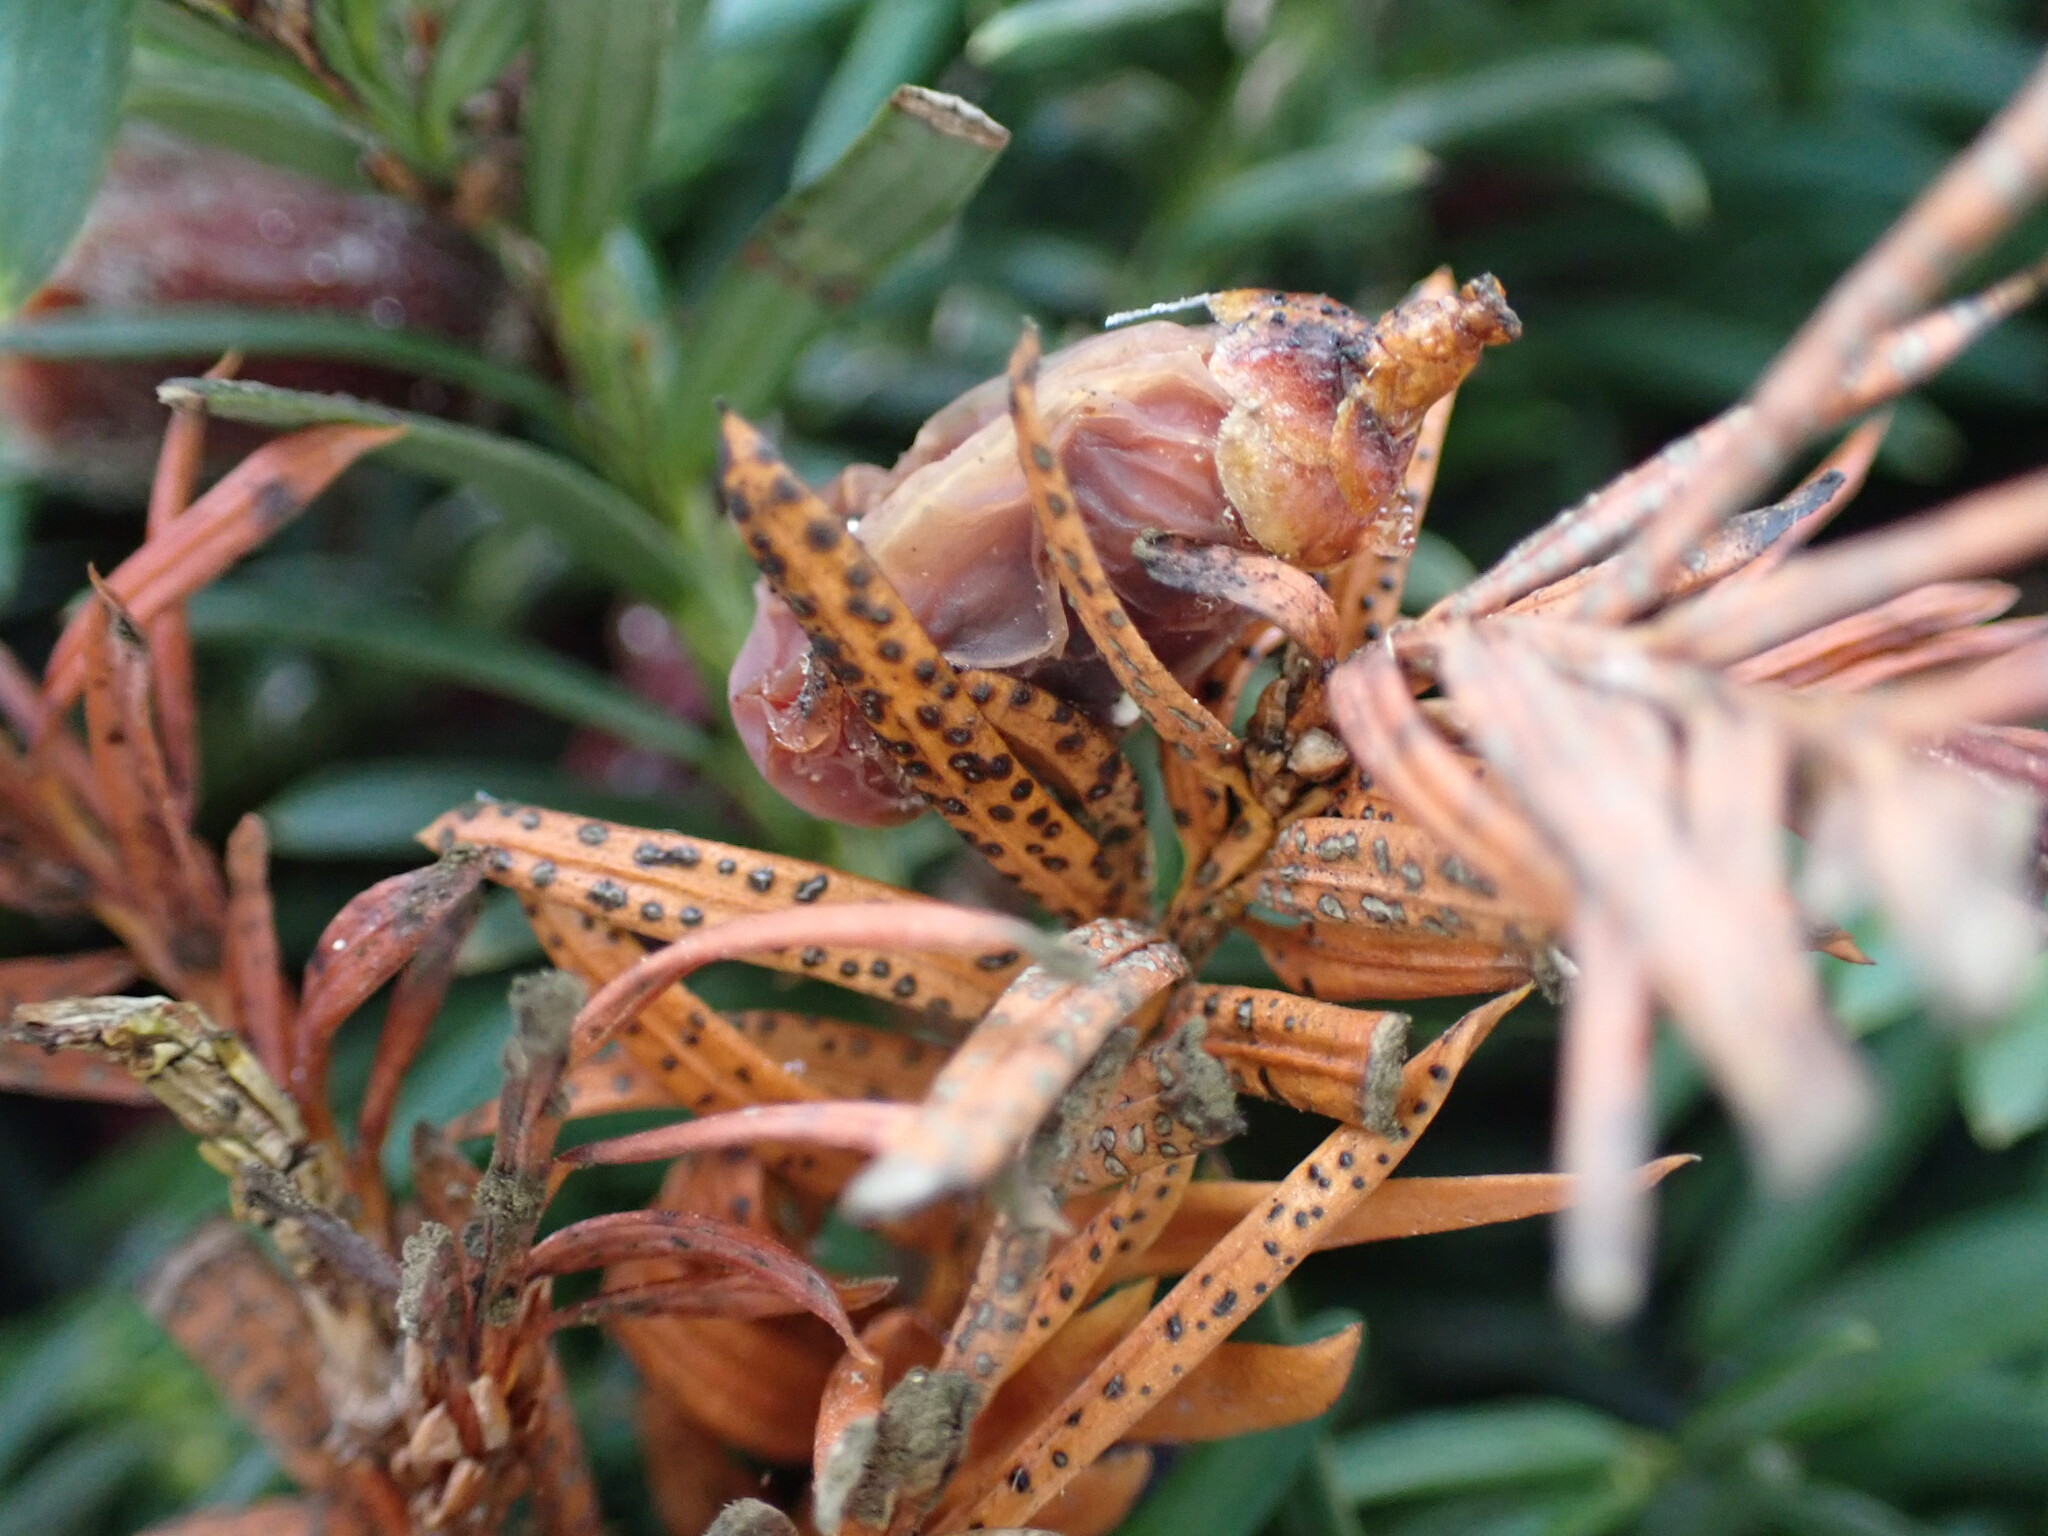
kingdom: Fungi
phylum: Ascomycota
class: Leotiomycetes
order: Helotiales
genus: Cryptocline
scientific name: Cryptocline taxicola
